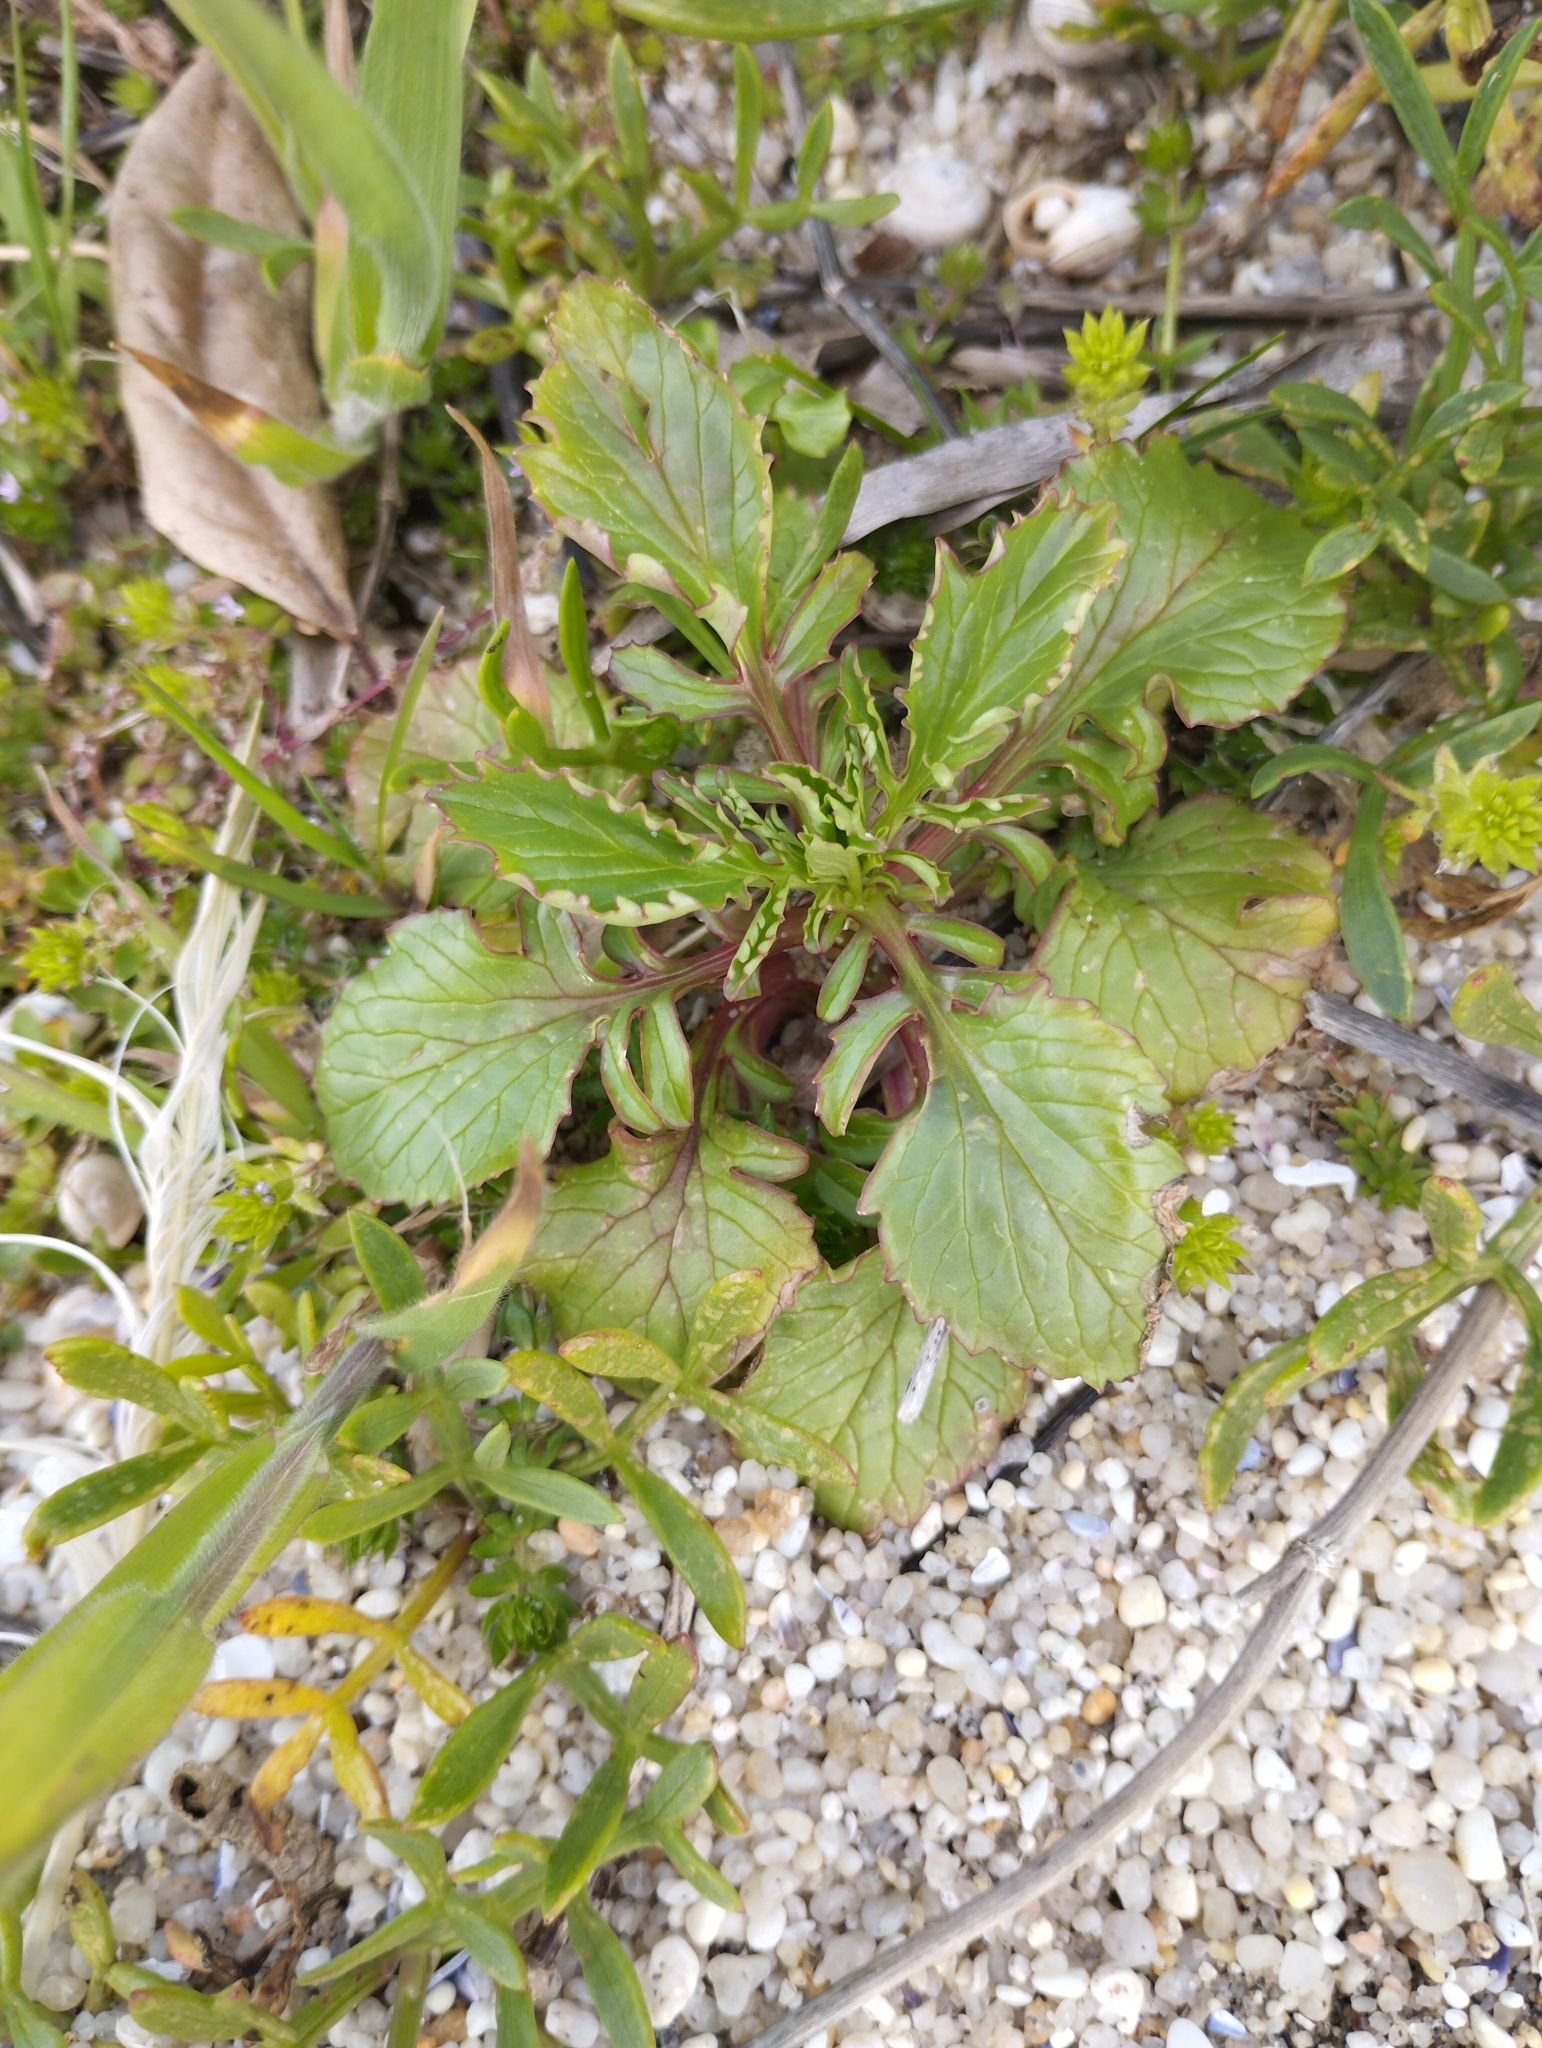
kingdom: Plantae
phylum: Tracheophyta
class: Magnoliopsida
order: Dipsacales
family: Caprifoliaceae
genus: Centranthus
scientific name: Centranthus calcitrapae
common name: Annual valerian
